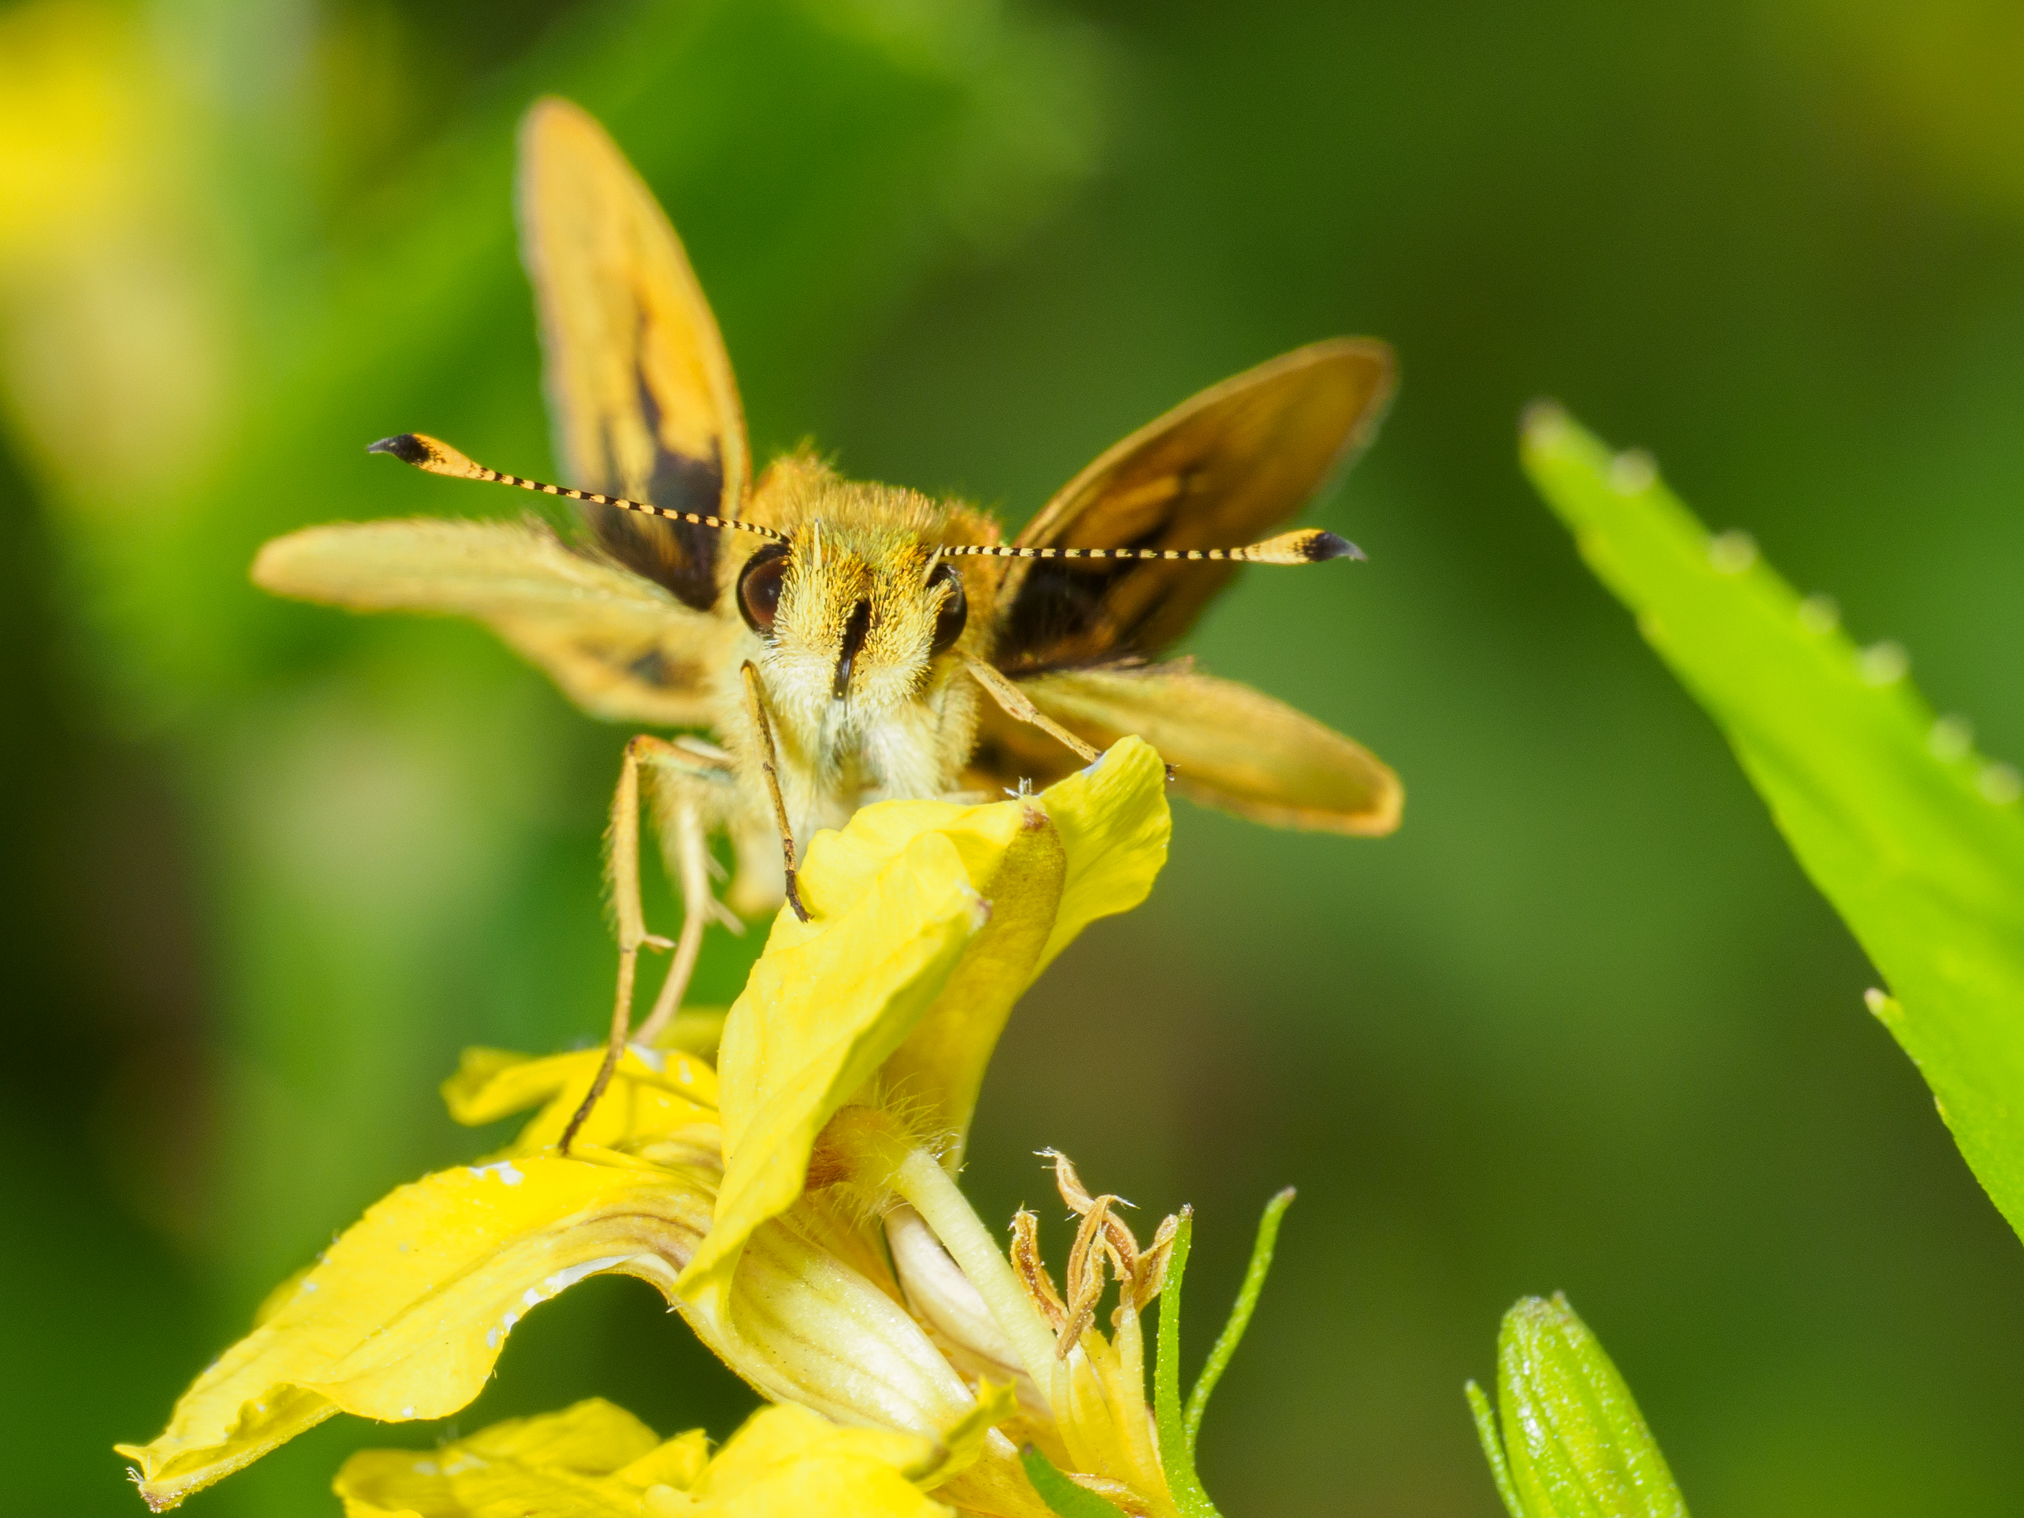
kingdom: Animalia
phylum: Arthropoda
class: Insecta
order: Lepidoptera
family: Hesperiidae
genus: Ocybadistes
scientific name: Ocybadistes walkeri
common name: Yellow-banded dart
